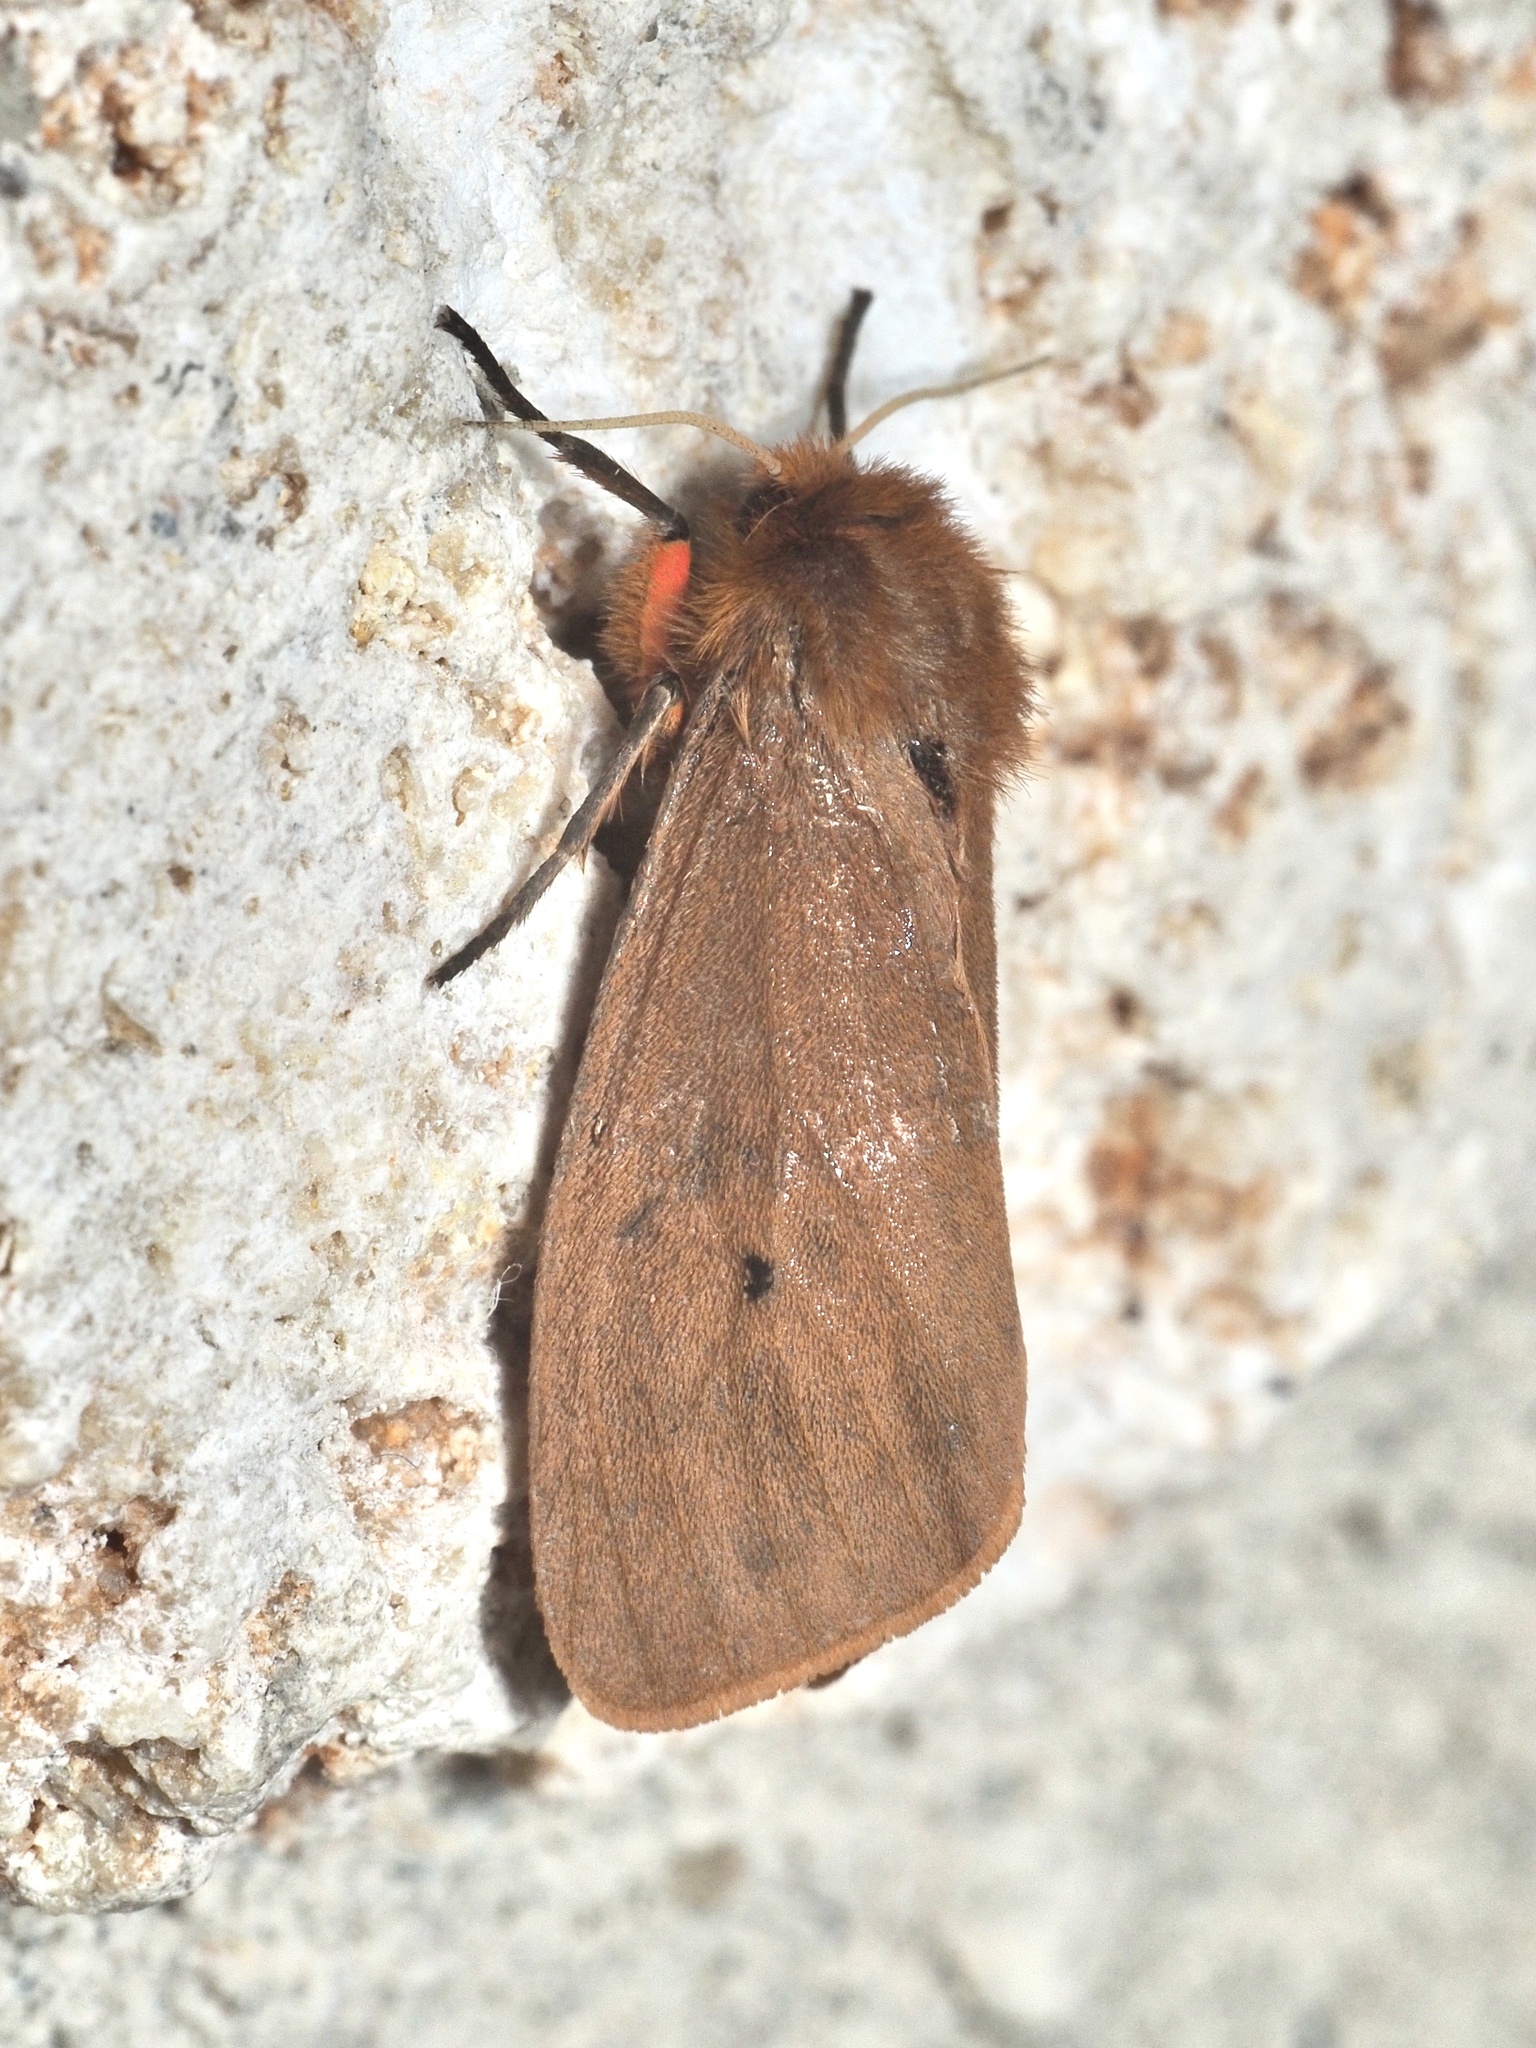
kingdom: Animalia
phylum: Arthropoda
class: Insecta
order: Lepidoptera
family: Erebidae
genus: Phragmatobia
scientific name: Phragmatobia fuliginosa
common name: Ruby tiger
